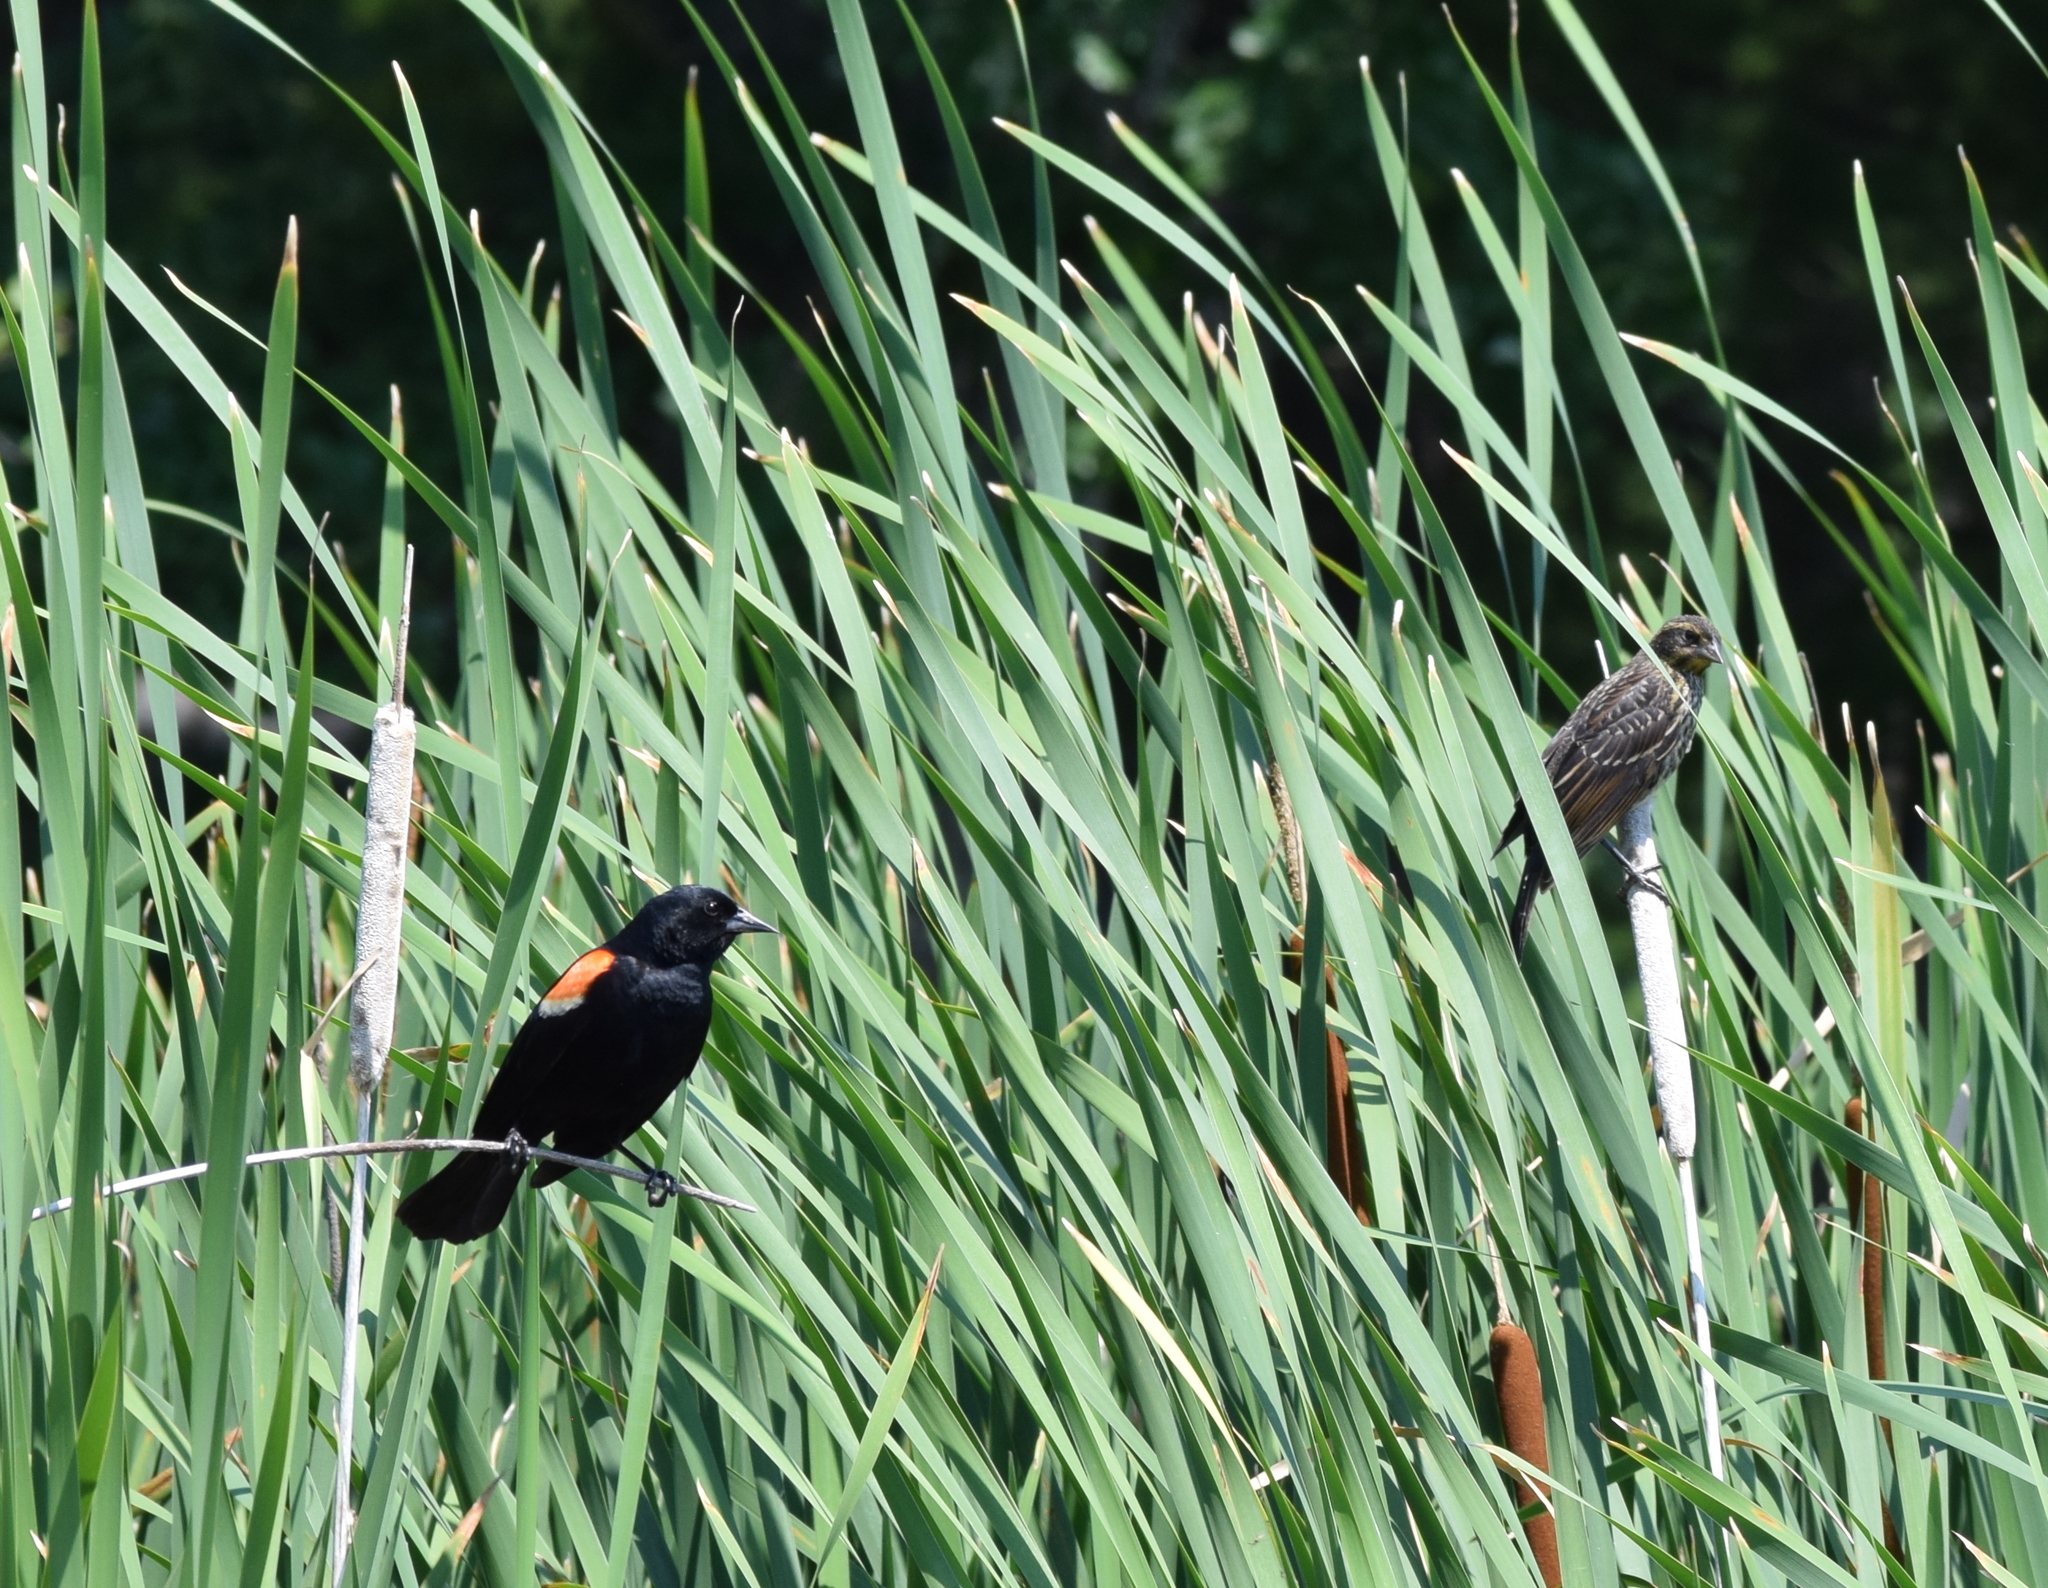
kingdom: Animalia
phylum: Chordata
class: Aves
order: Passeriformes
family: Icteridae
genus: Agelaius
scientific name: Agelaius phoeniceus
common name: Red-winged blackbird
